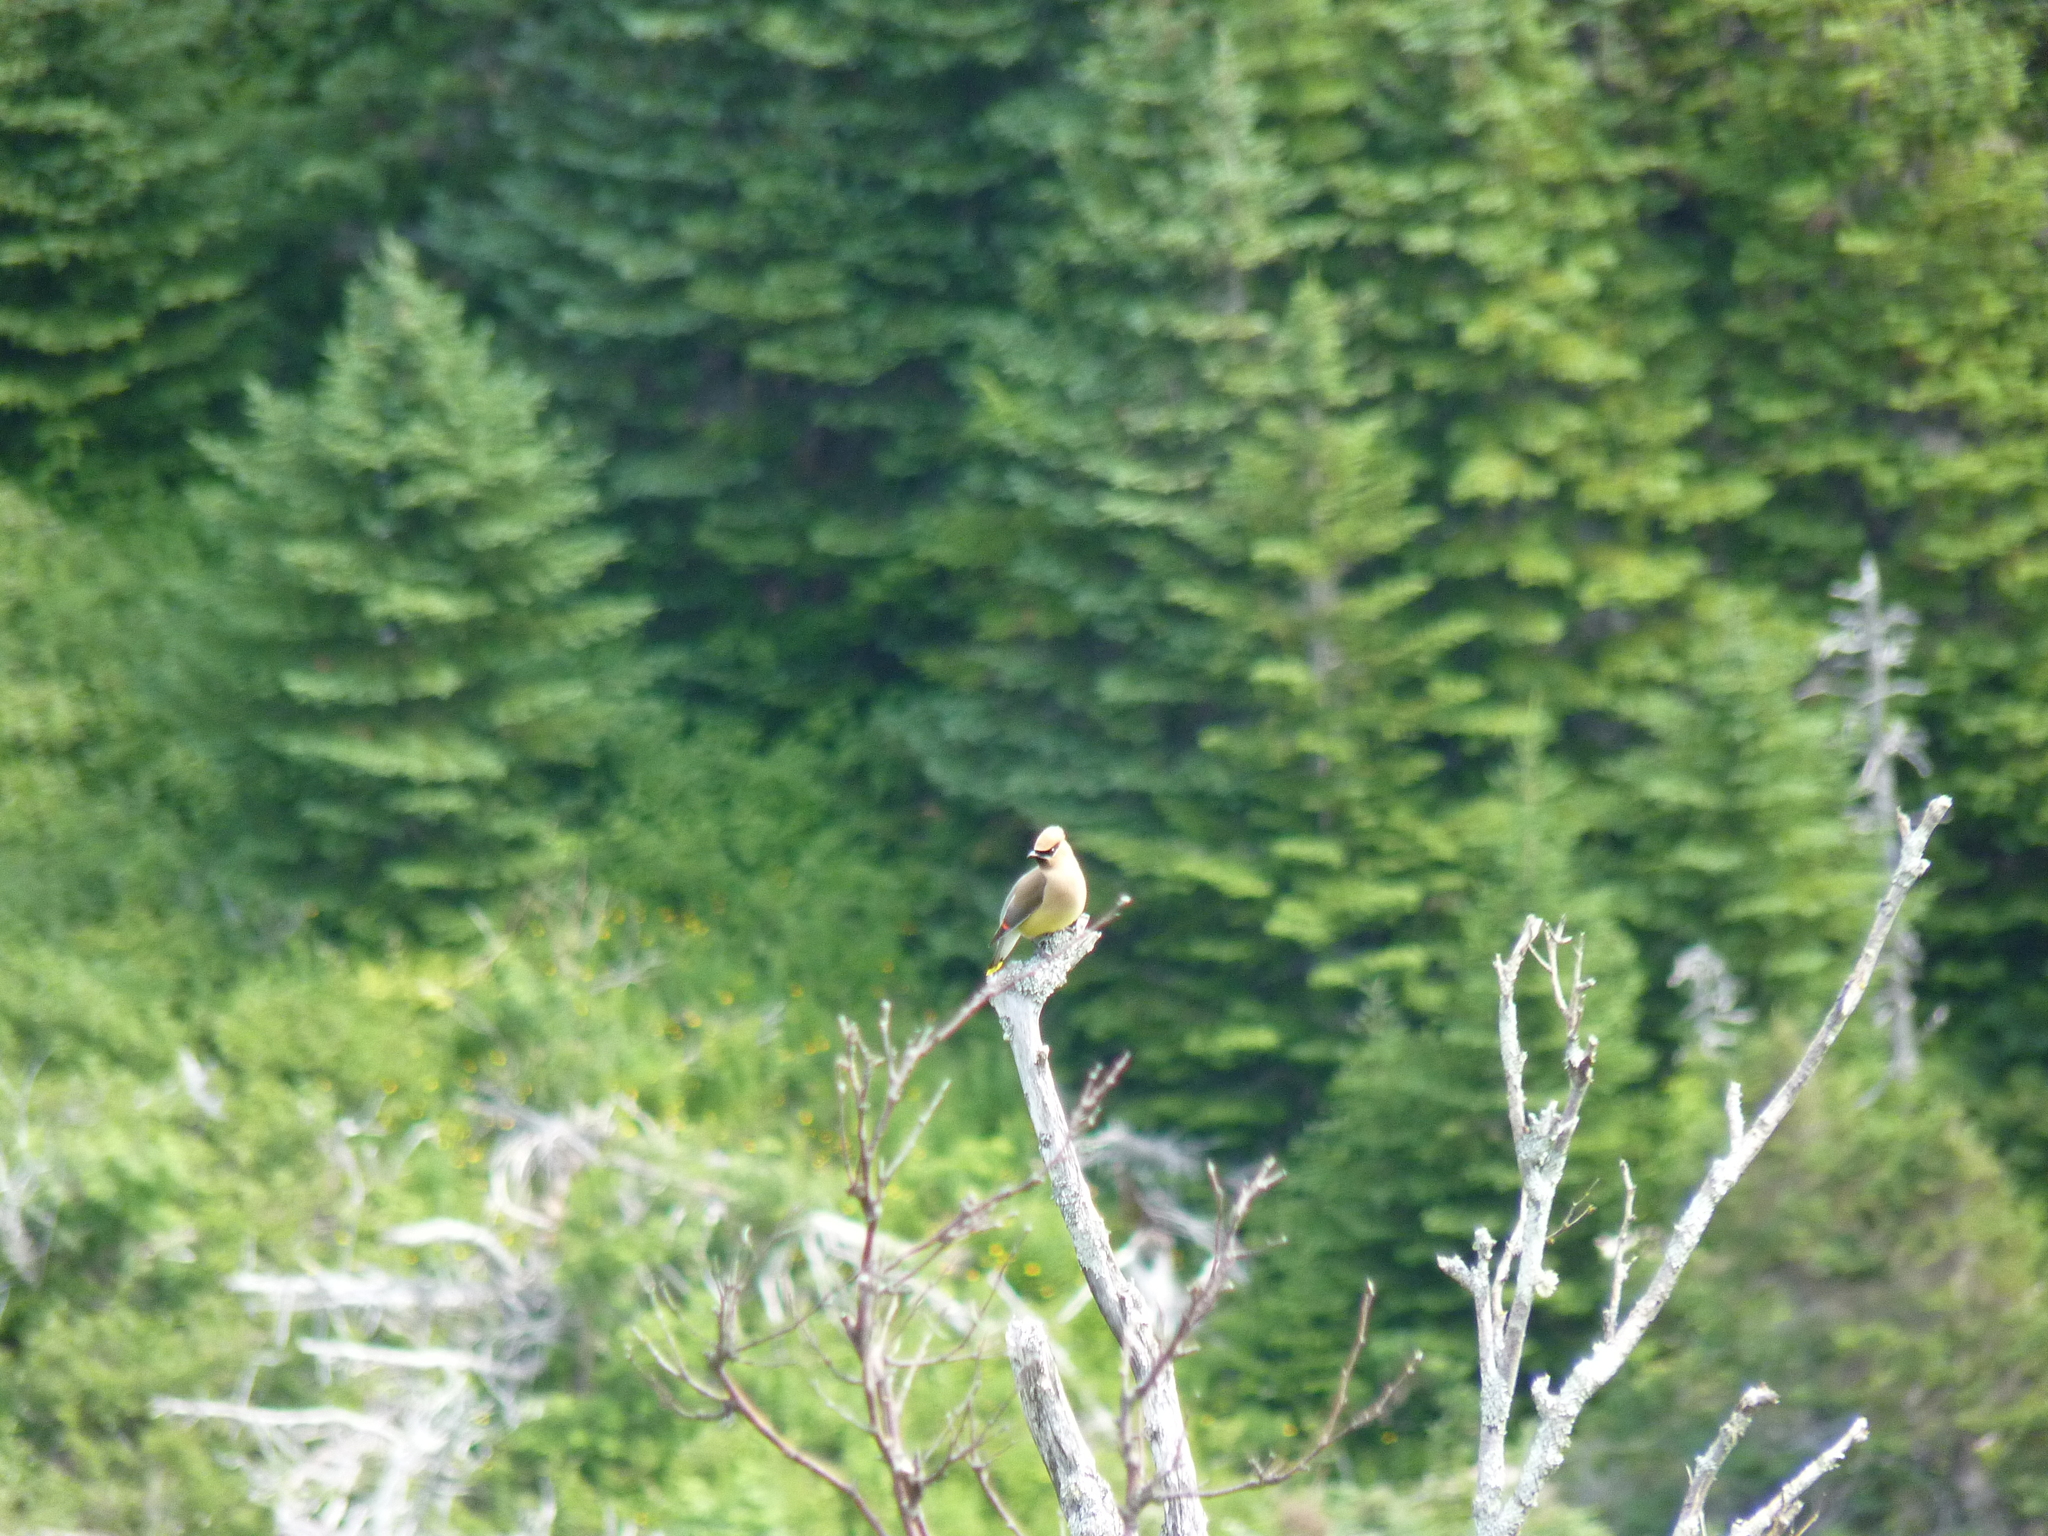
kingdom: Animalia
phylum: Chordata
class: Aves
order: Passeriformes
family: Bombycillidae
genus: Bombycilla
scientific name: Bombycilla cedrorum
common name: Cedar waxwing
